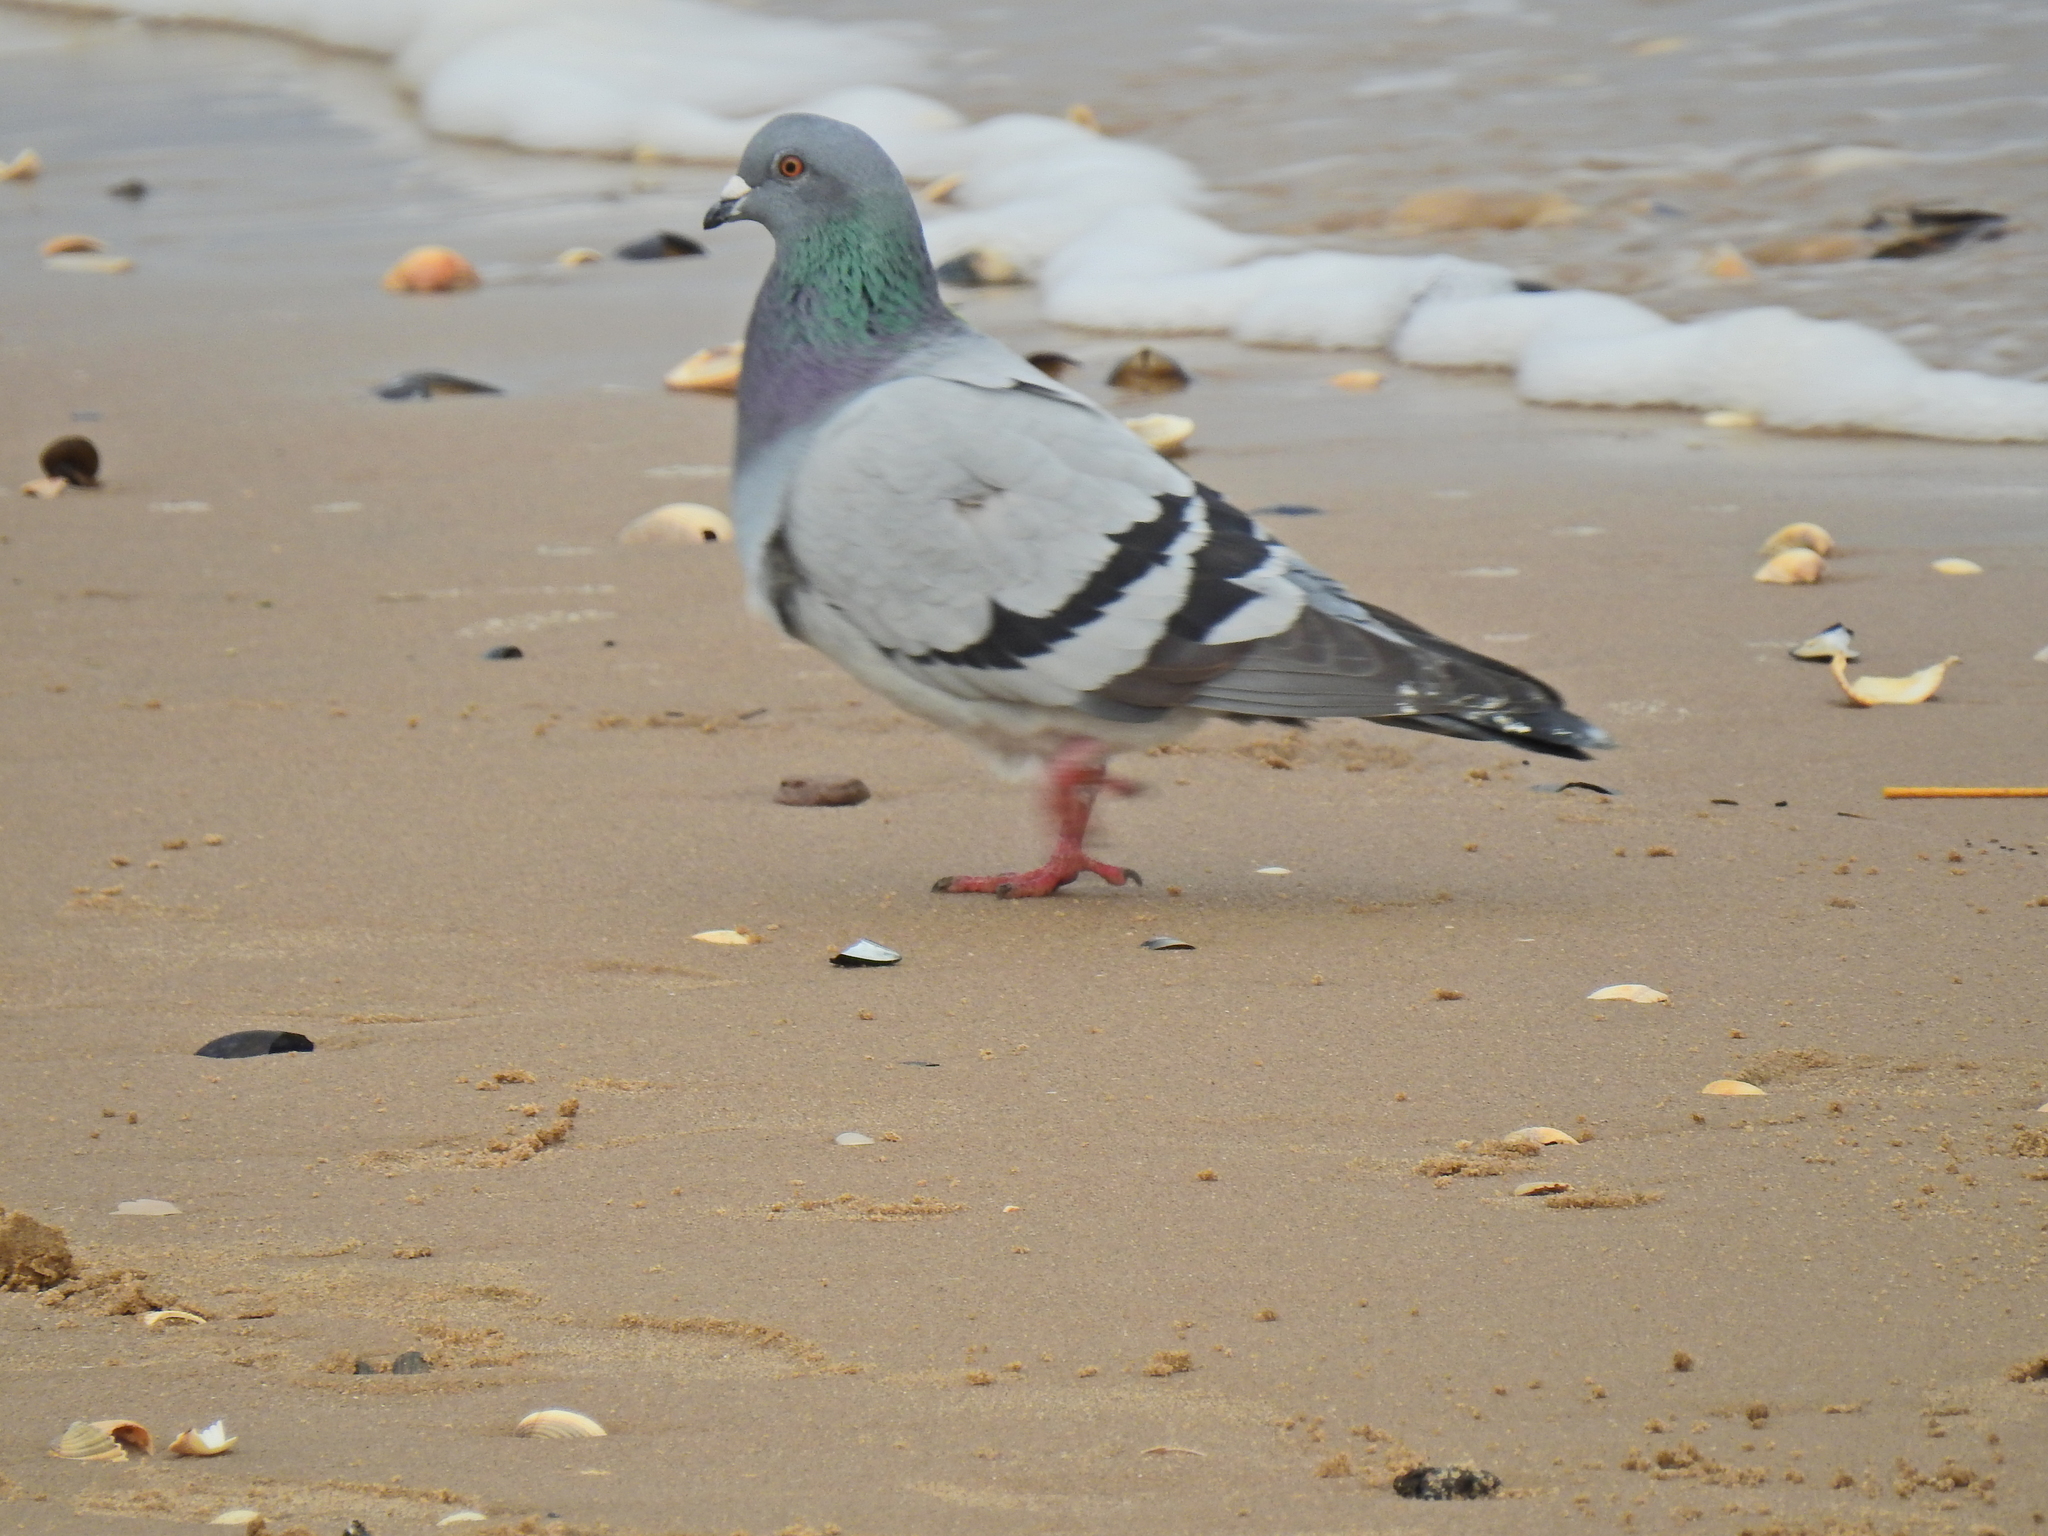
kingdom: Animalia
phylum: Chordata
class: Aves
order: Columbiformes
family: Columbidae
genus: Columba
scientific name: Columba livia
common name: Rock pigeon
